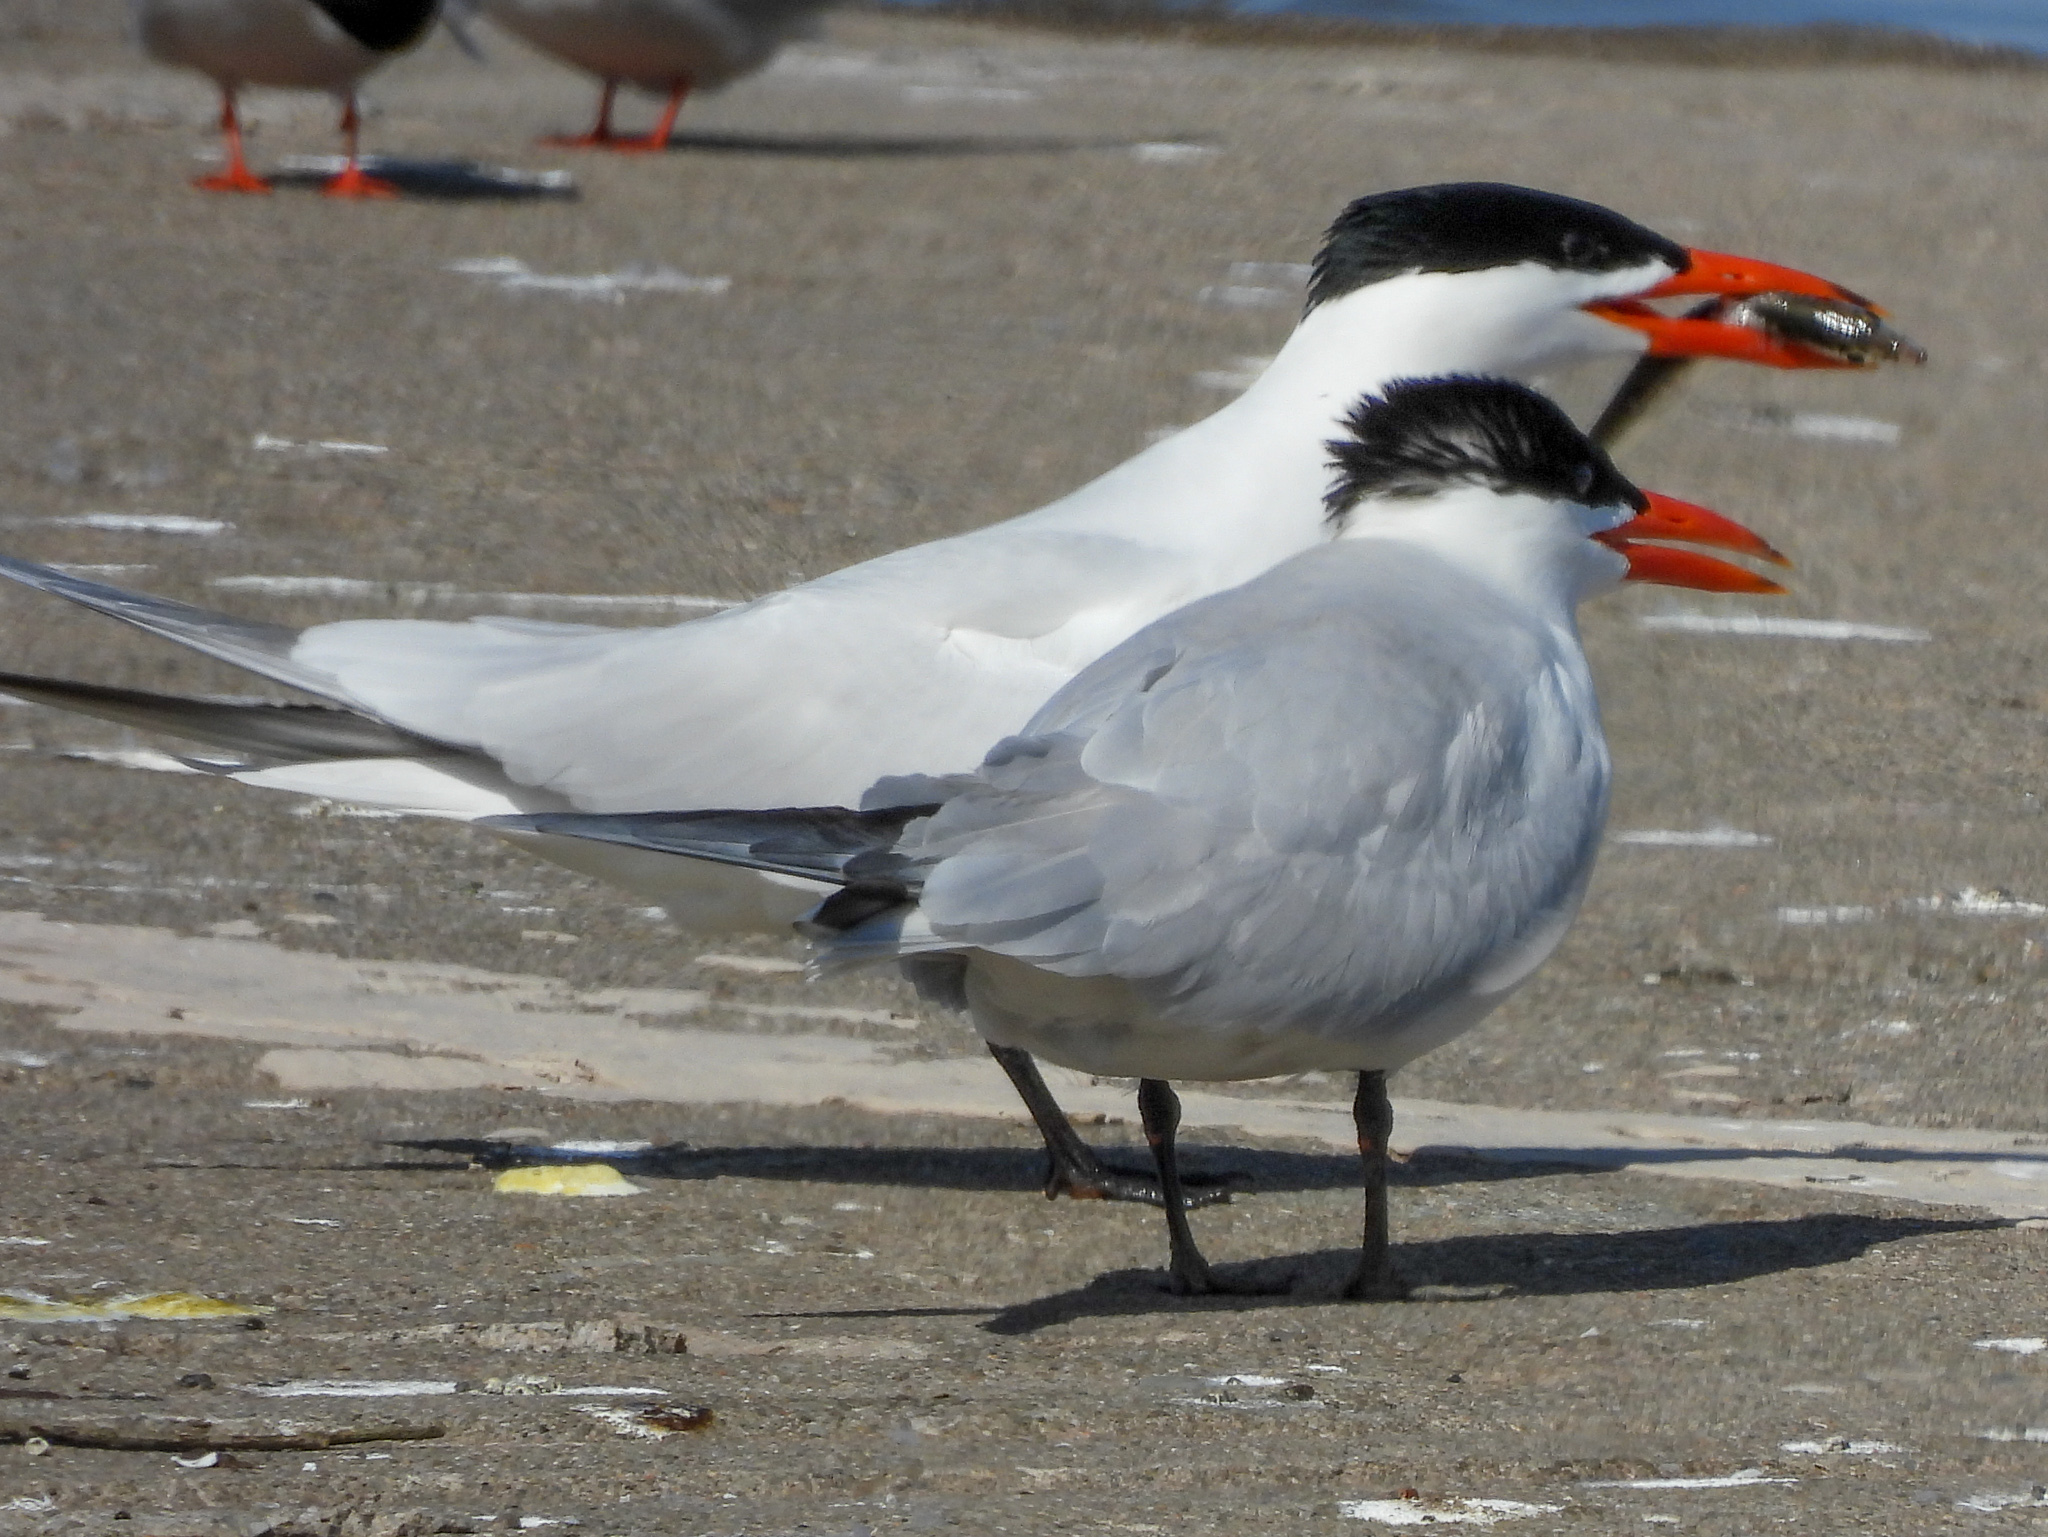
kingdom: Animalia
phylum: Chordata
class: Aves
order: Charadriiformes
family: Laridae
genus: Hydroprogne
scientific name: Hydroprogne caspia
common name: Caspian tern
